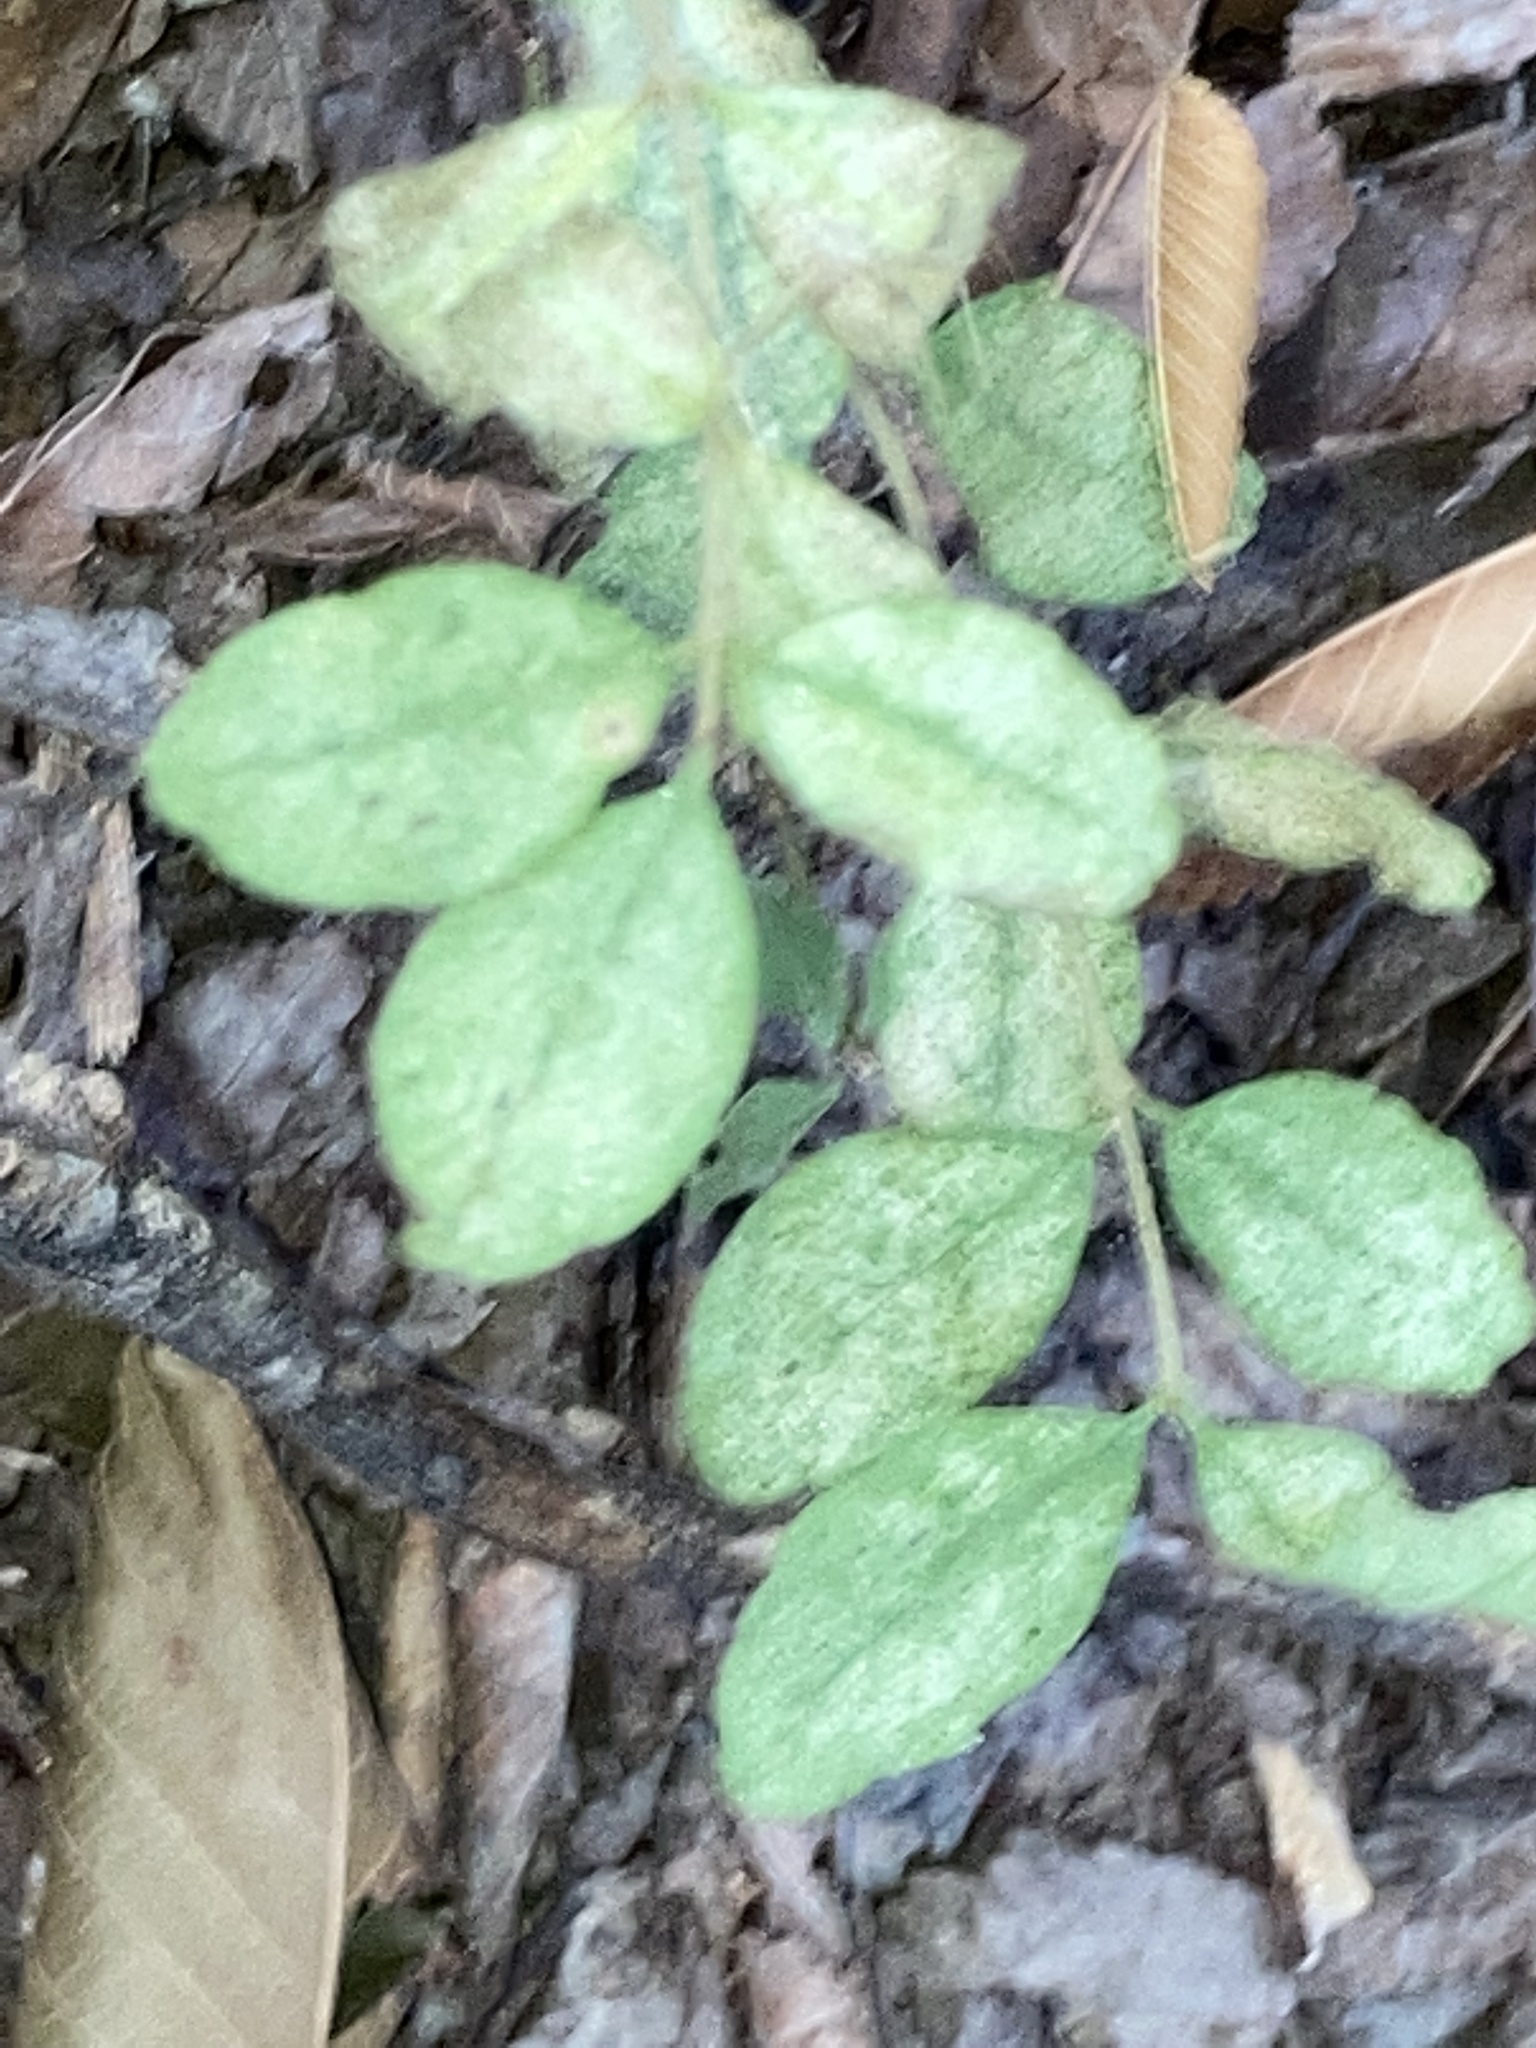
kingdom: Plantae
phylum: Tracheophyta
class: Magnoliopsida
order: Lamiales
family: Oleaceae
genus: Ligustrum
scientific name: Ligustrum sinense
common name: Chinese privet
